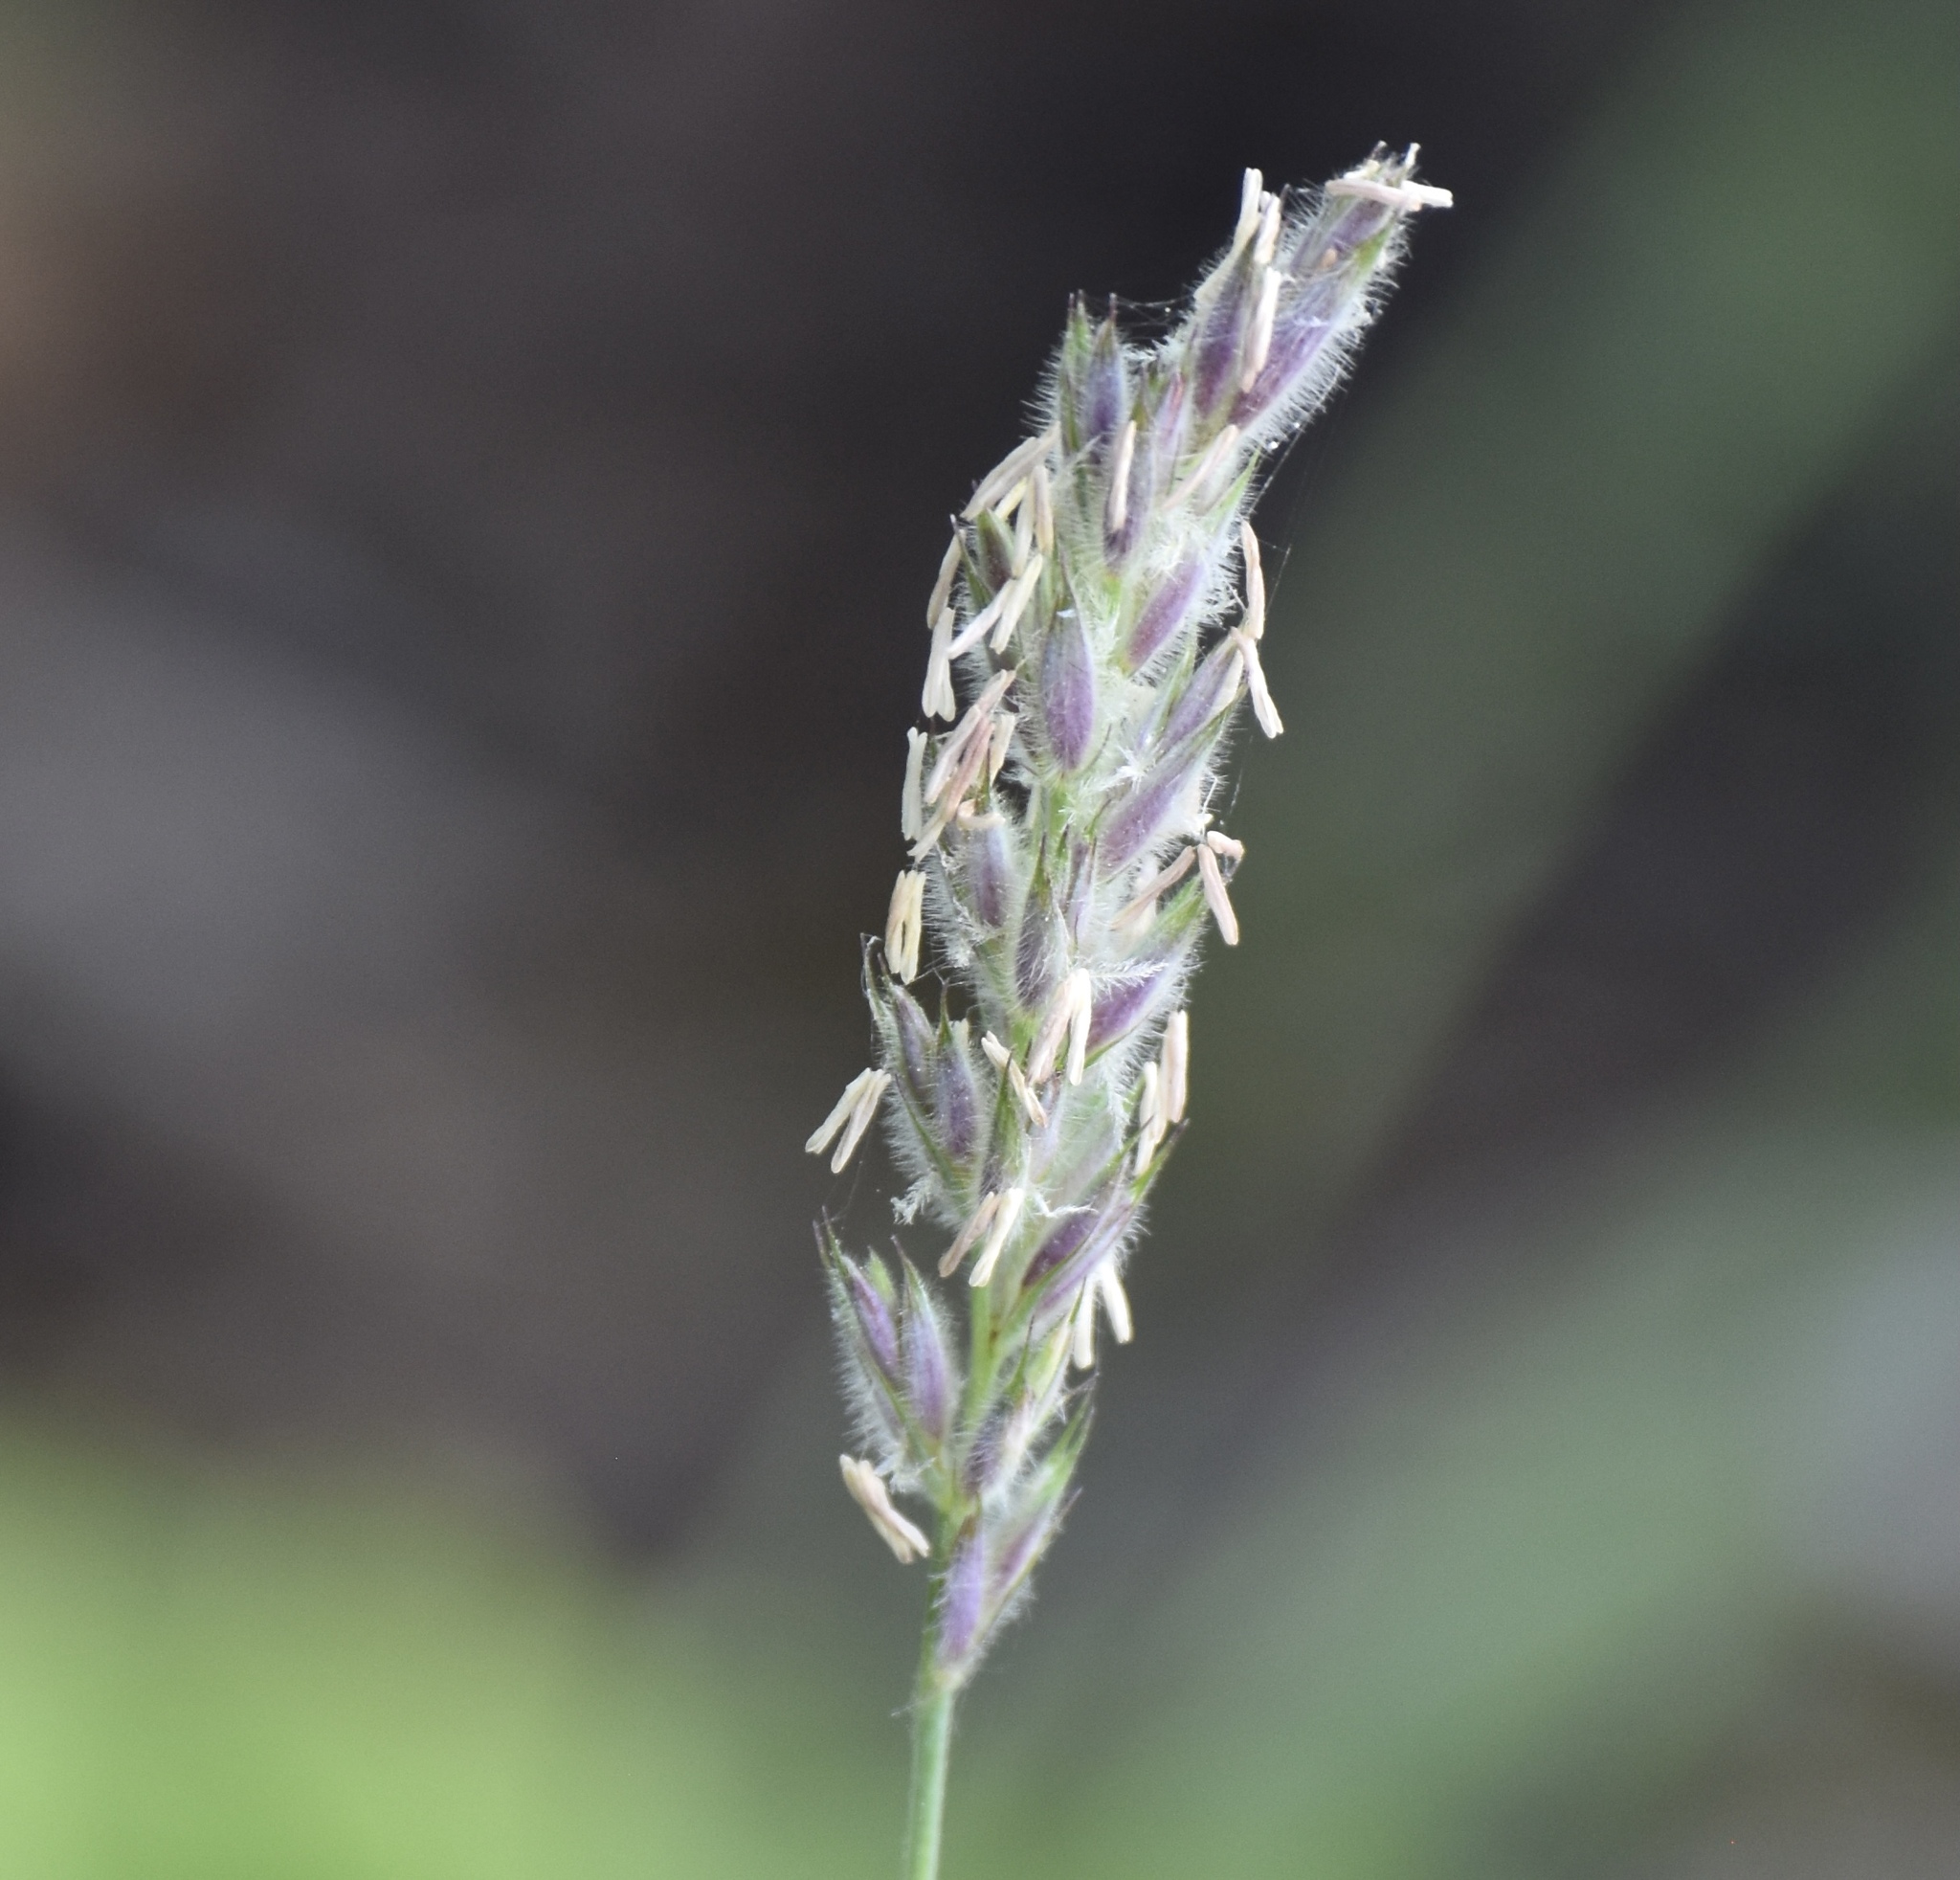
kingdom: Plantae
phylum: Tracheophyta
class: Liliopsida
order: Poales
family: Poaceae
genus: Leymus
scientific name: Leymus innovatus
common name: Boreal wild rye
